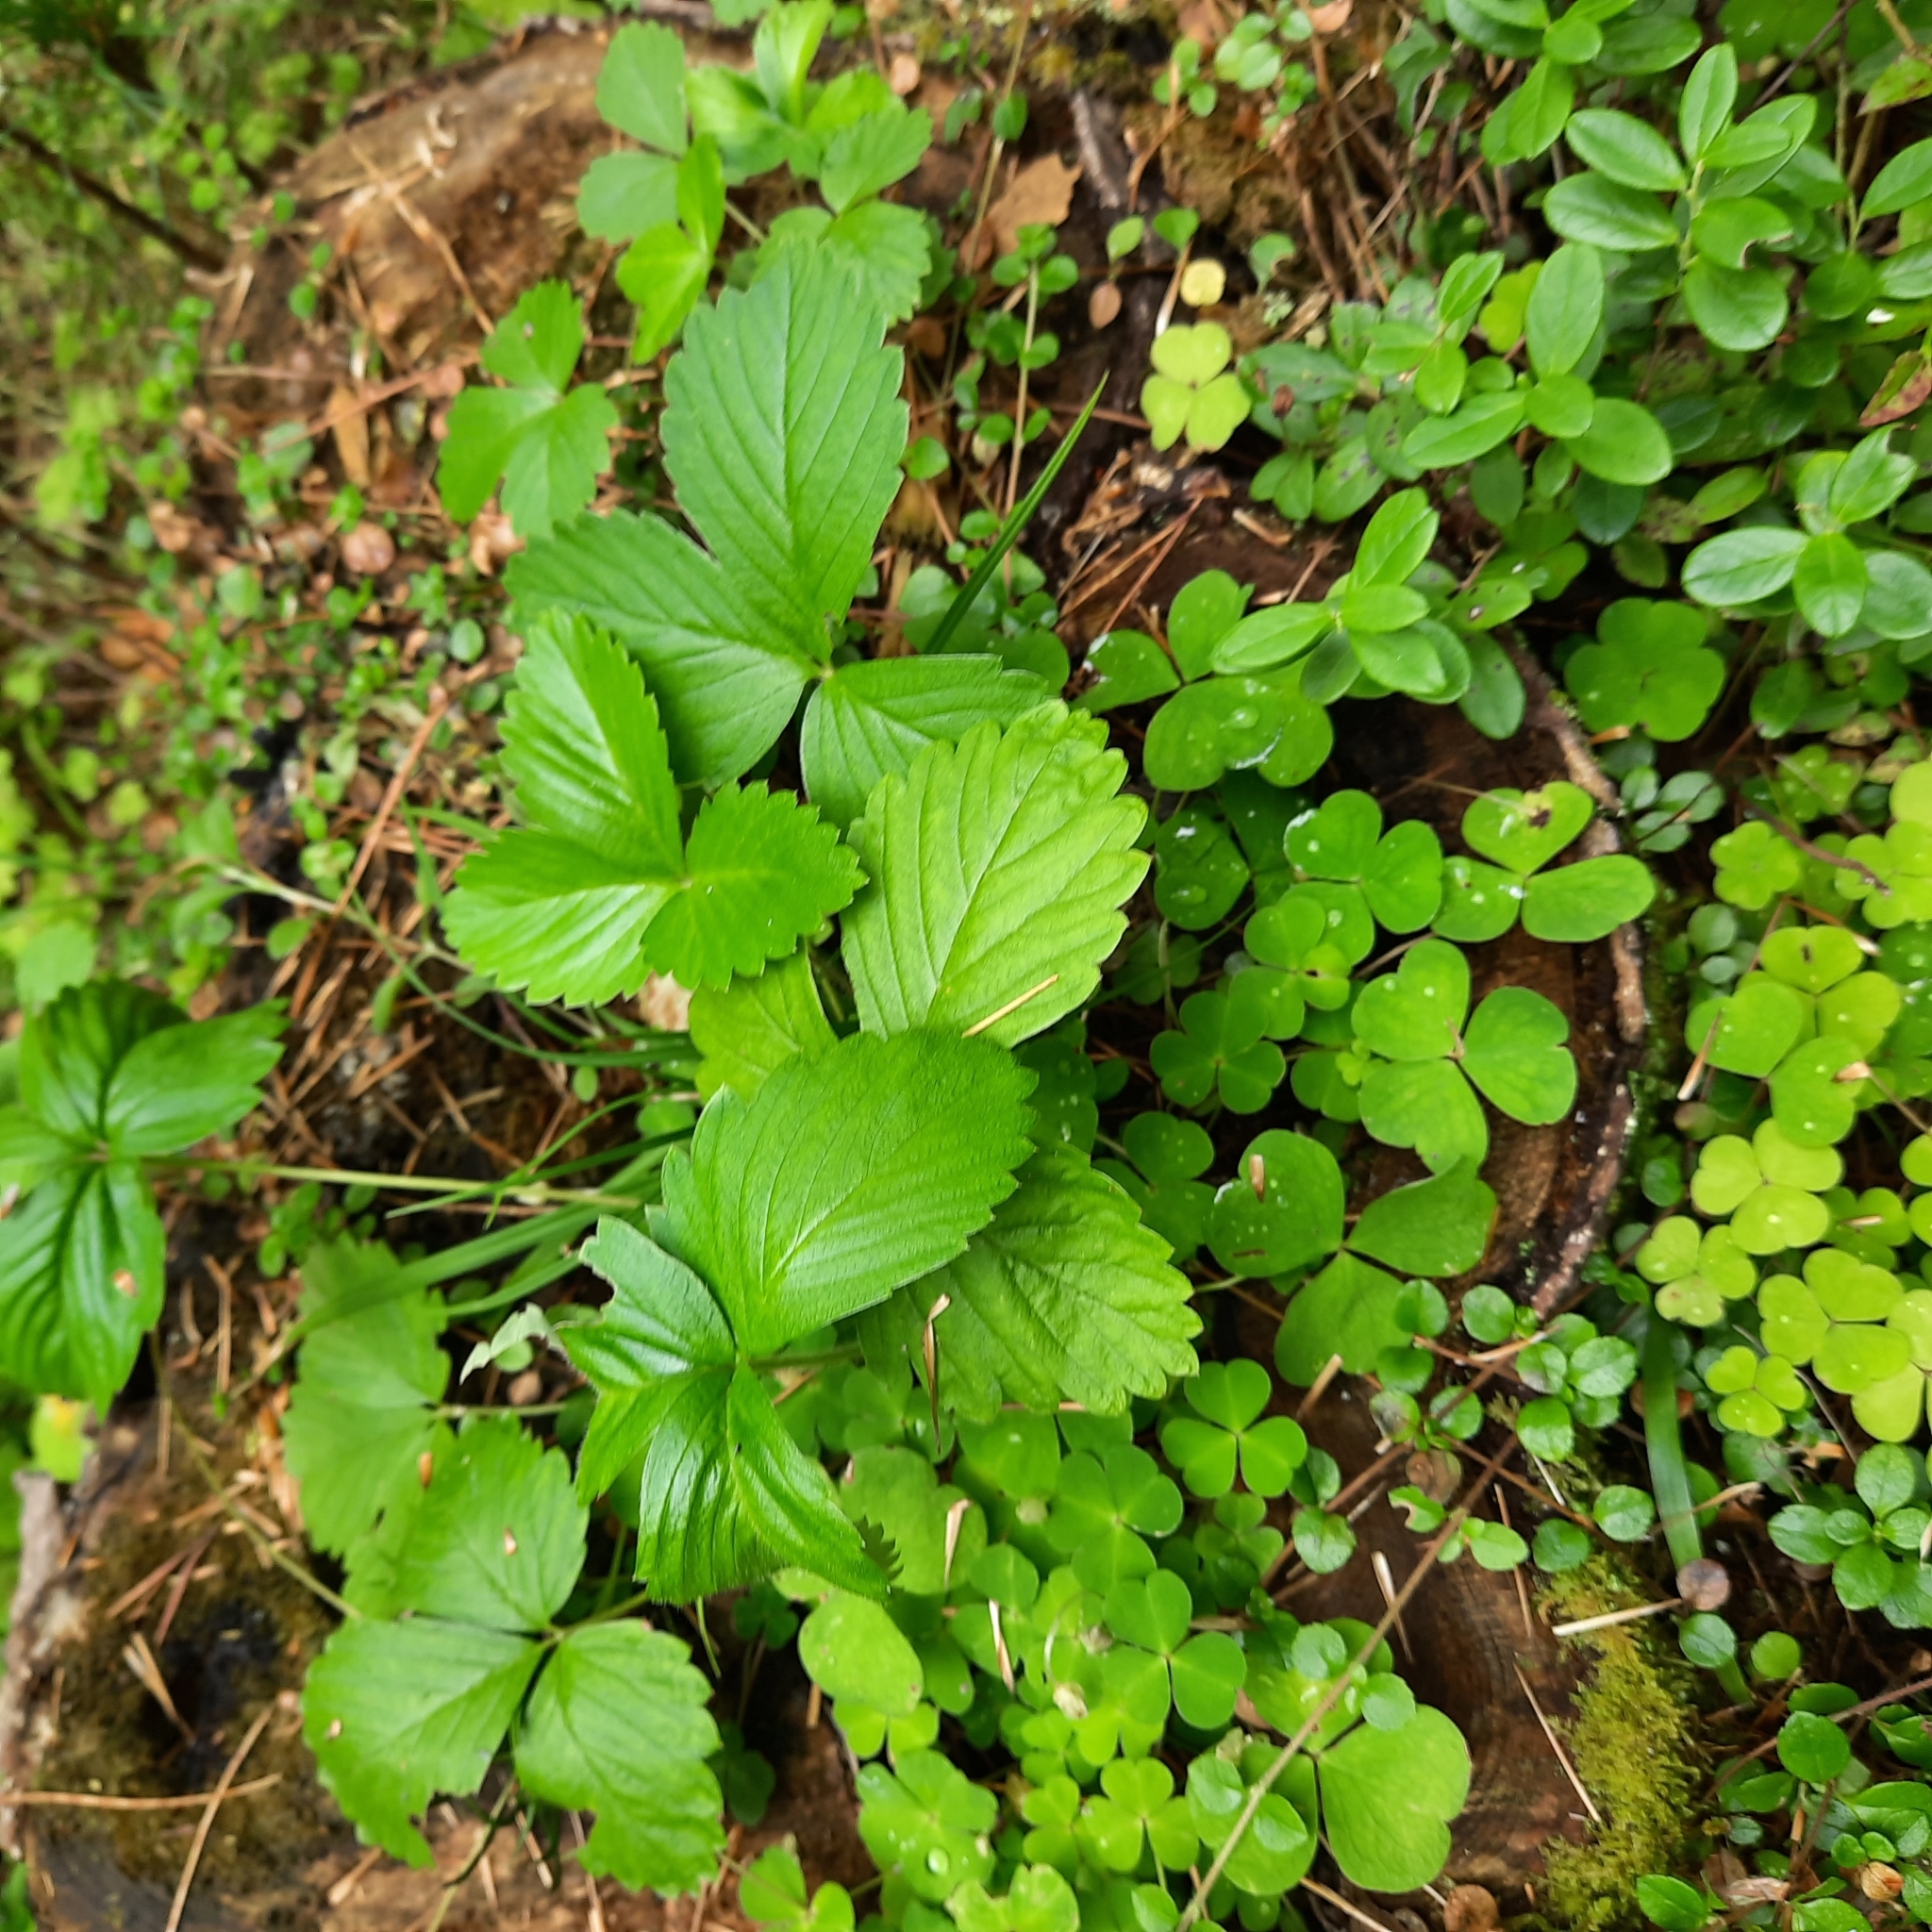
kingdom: Plantae
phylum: Tracheophyta
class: Magnoliopsida
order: Rosales
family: Rosaceae
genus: Fragaria
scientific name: Fragaria vesca
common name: Wild strawberry
